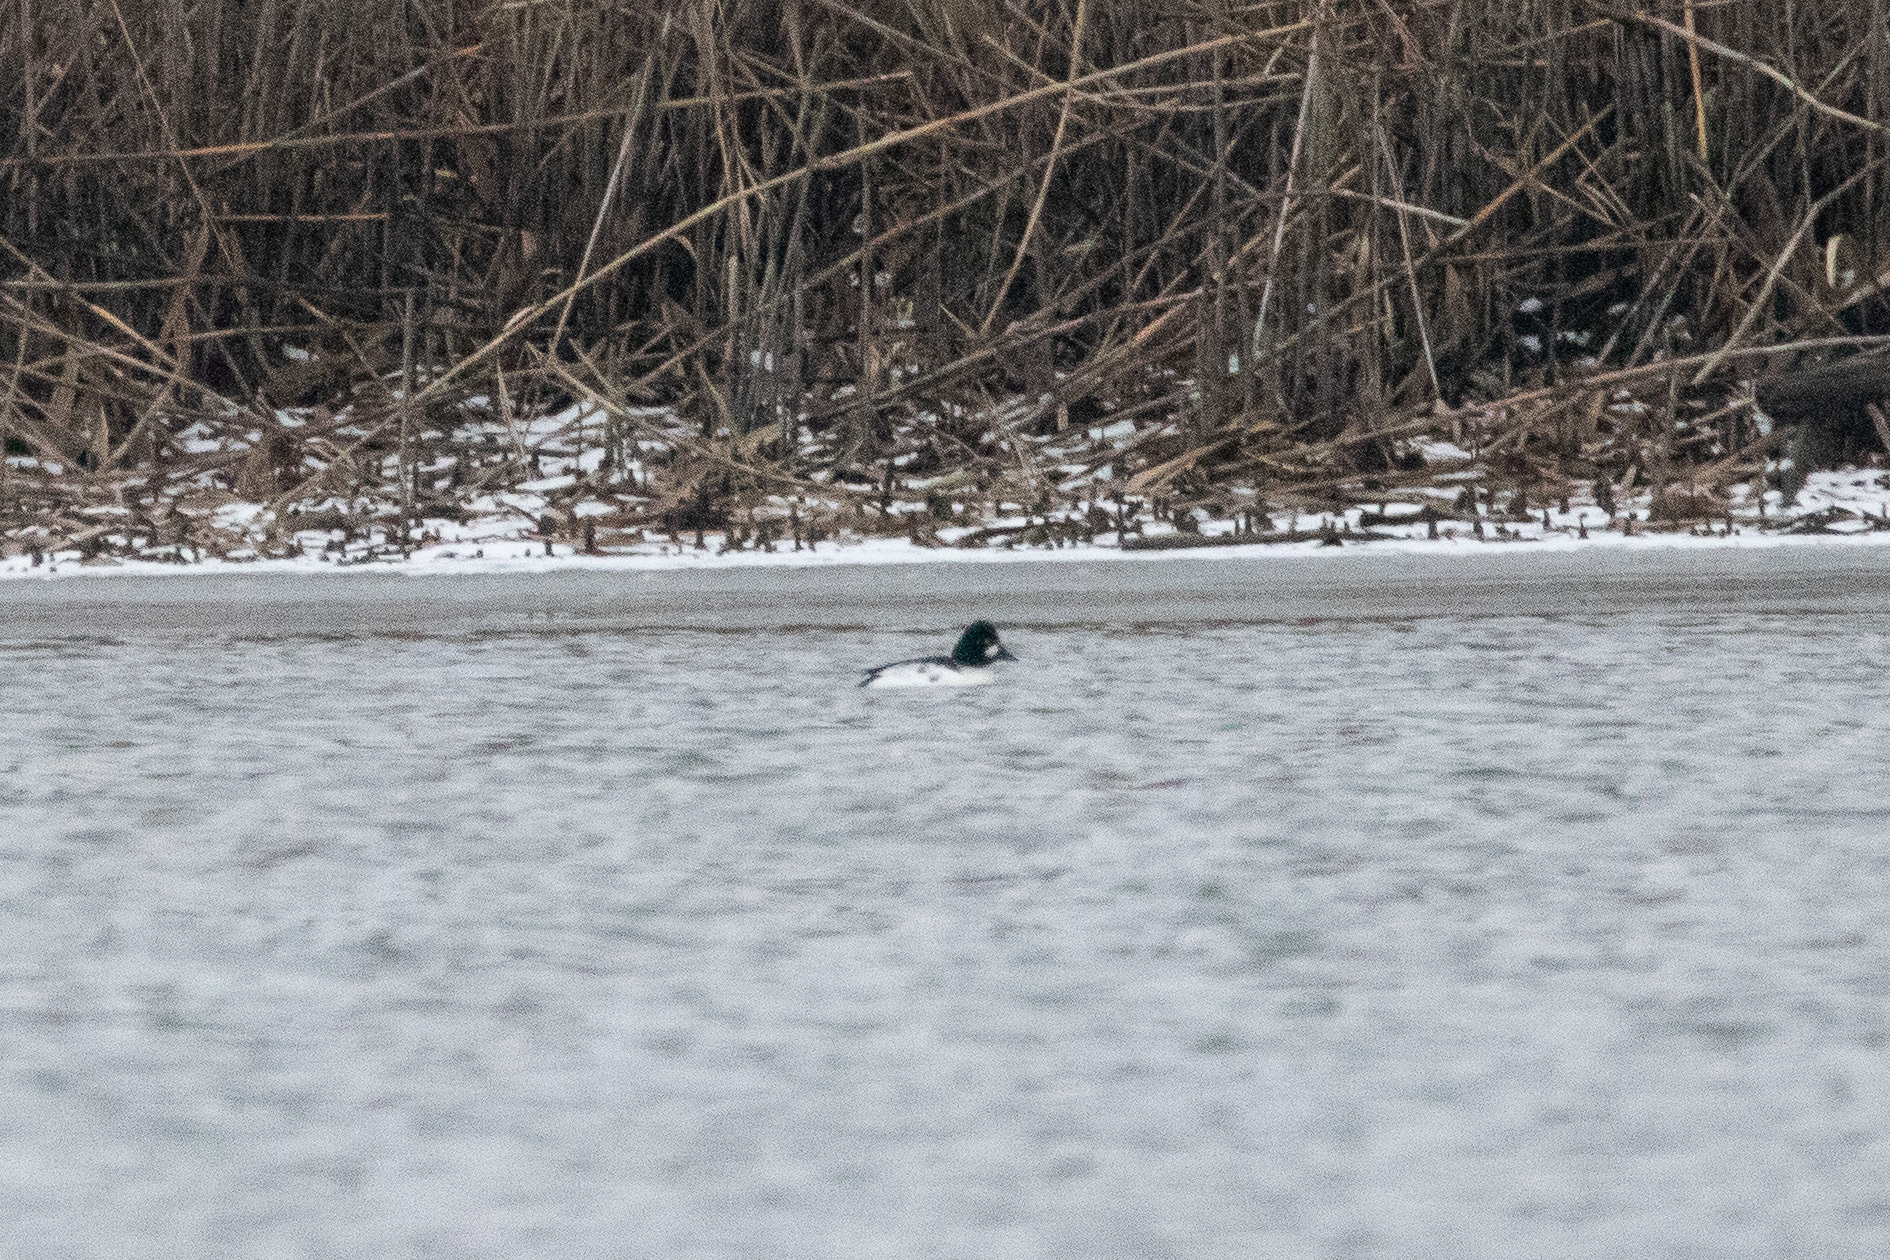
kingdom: Animalia
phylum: Chordata
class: Aves
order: Anseriformes
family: Anatidae
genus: Bucephala
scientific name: Bucephala clangula
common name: Common goldeneye
